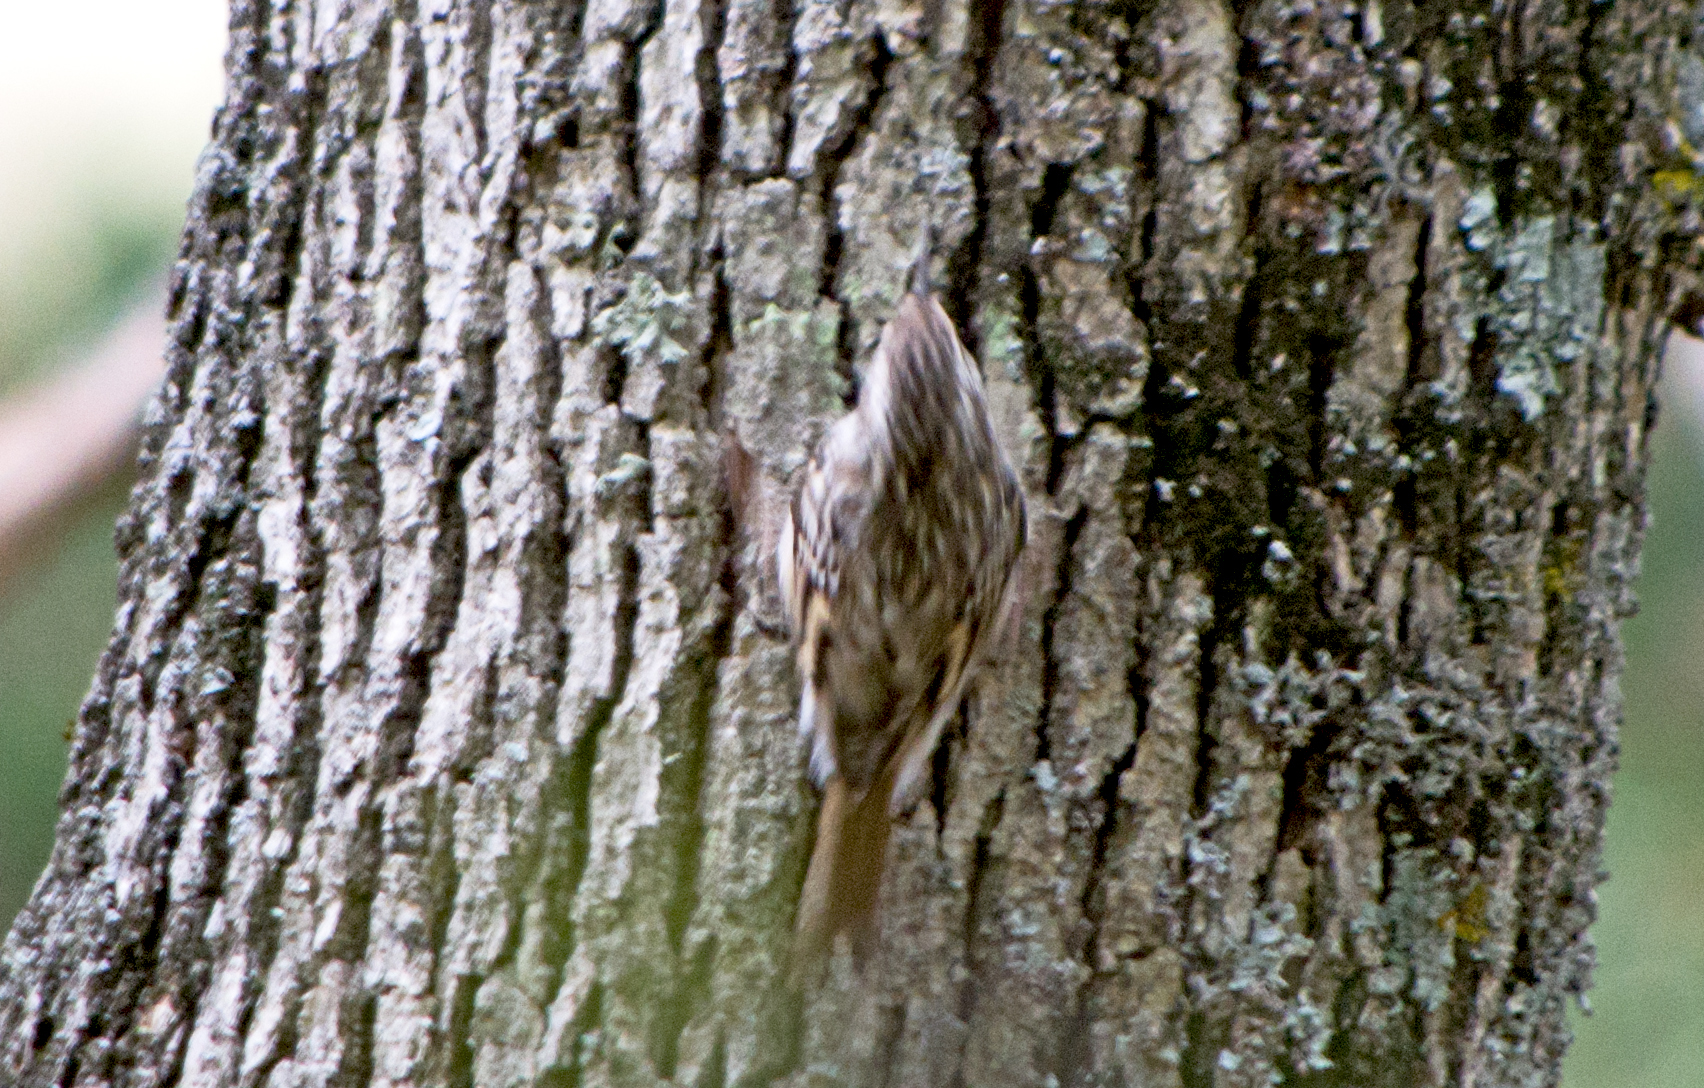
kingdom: Animalia
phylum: Chordata
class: Aves
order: Passeriformes
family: Certhiidae
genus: Certhia
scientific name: Certhia brachydactyla
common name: Short-toed treecreeper
